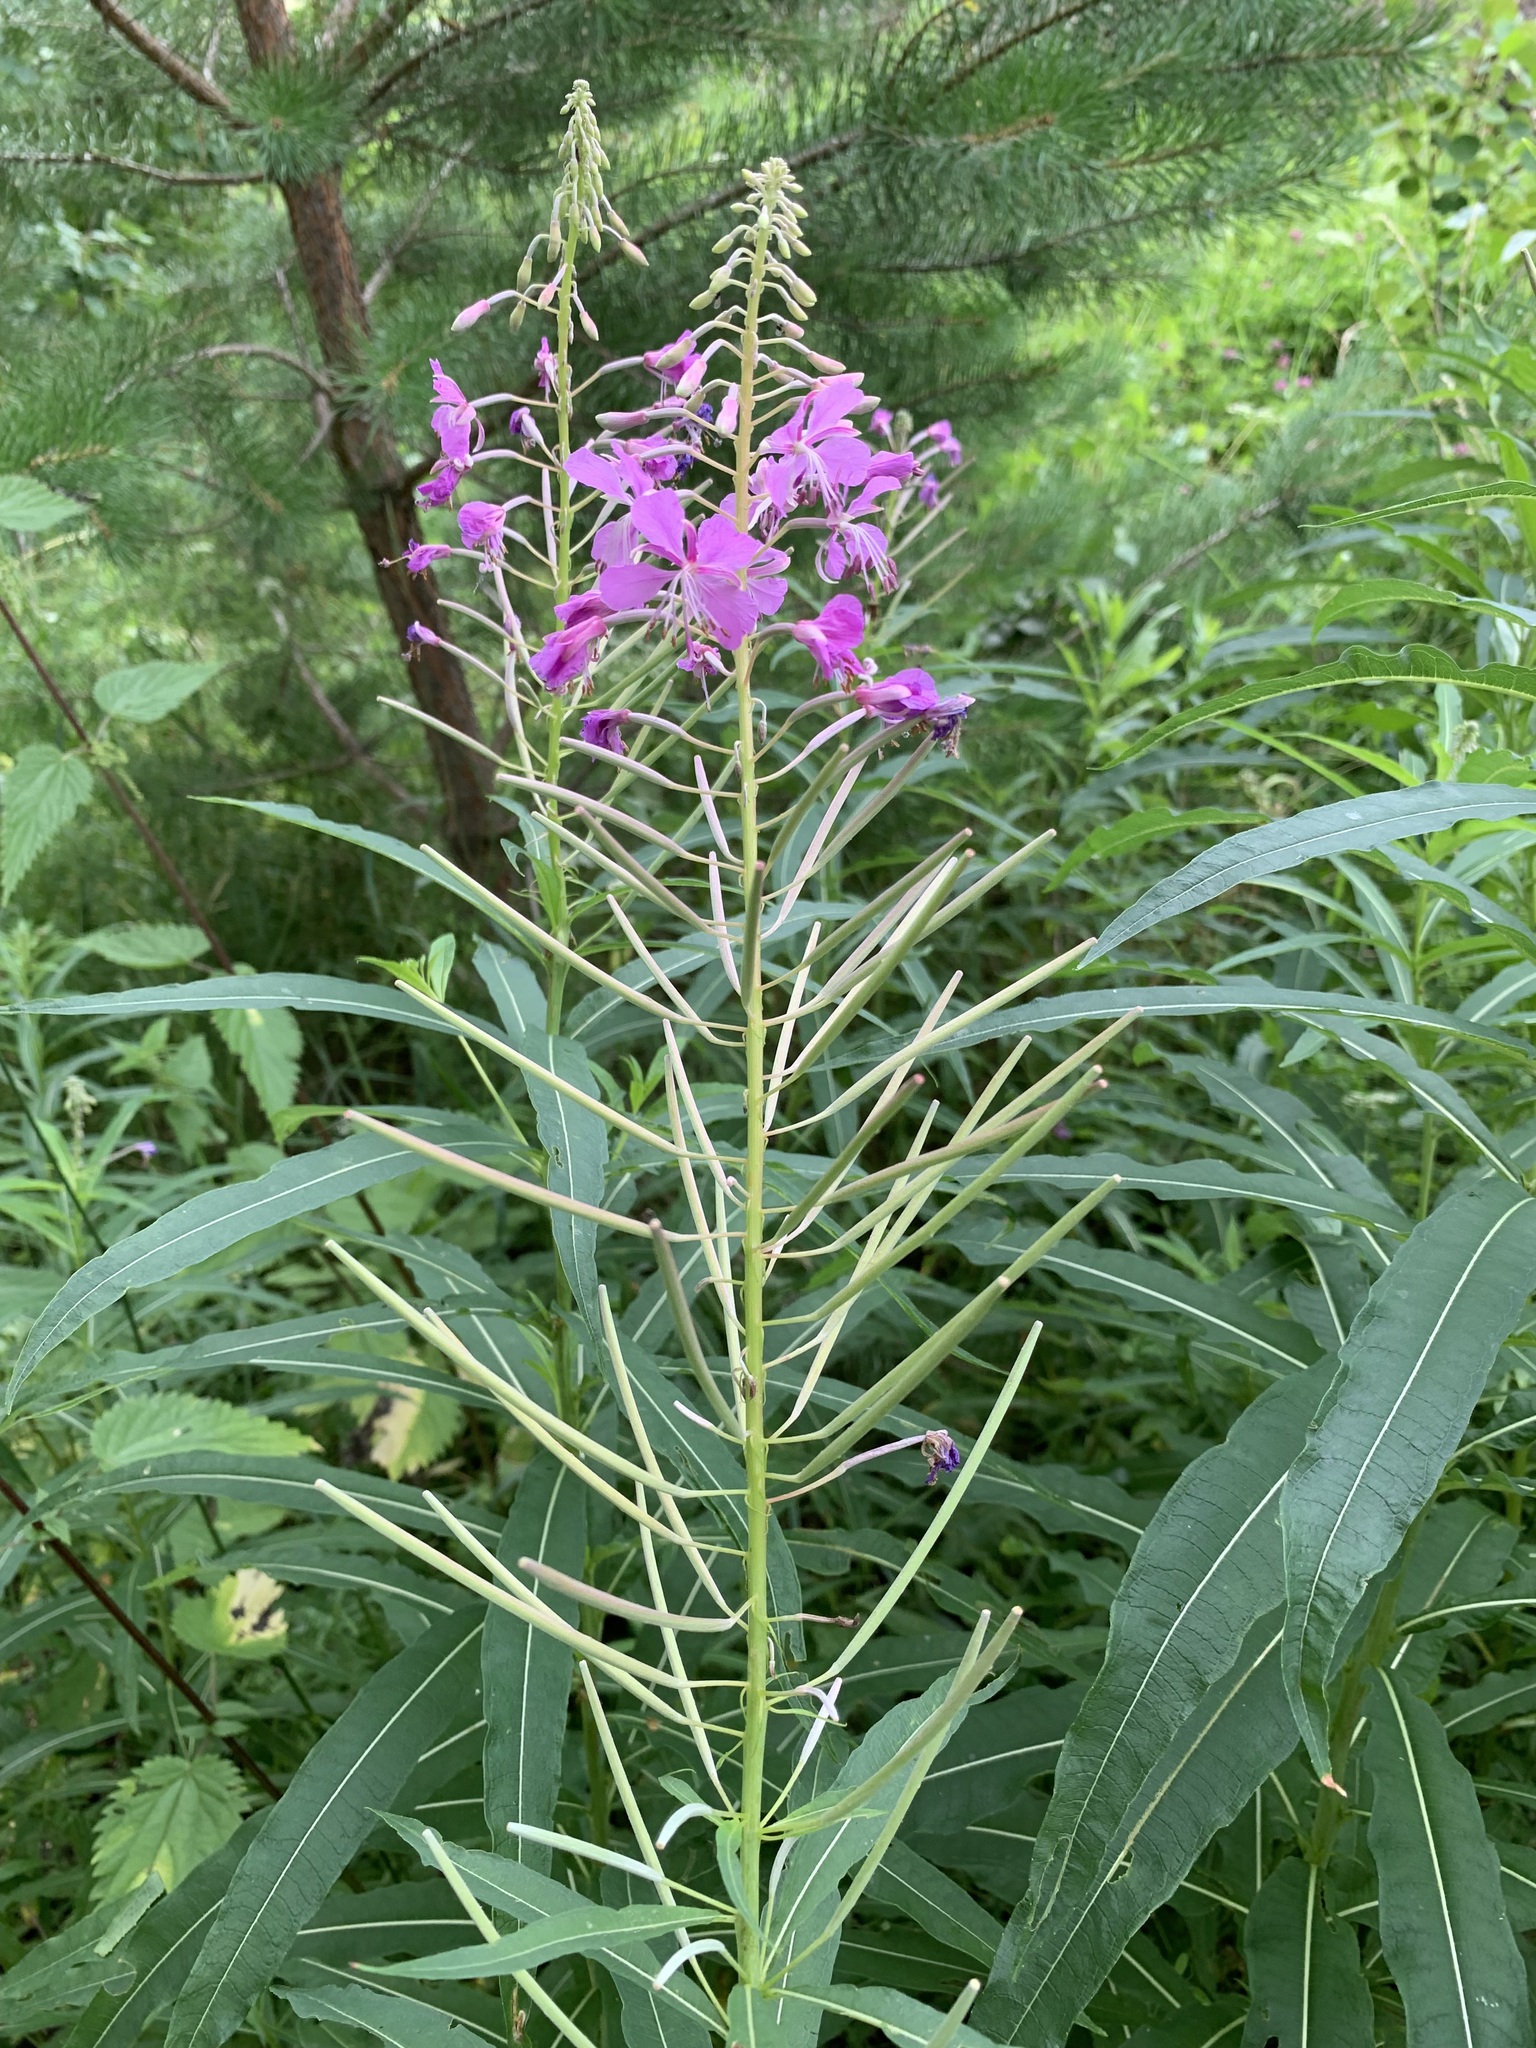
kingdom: Plantae
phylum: Tracheophyta
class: Magnoliopsida
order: Myrtales
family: Onagraceae
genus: Chamaenerion
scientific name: Chamaenerion angustifolium
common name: Fireweed
